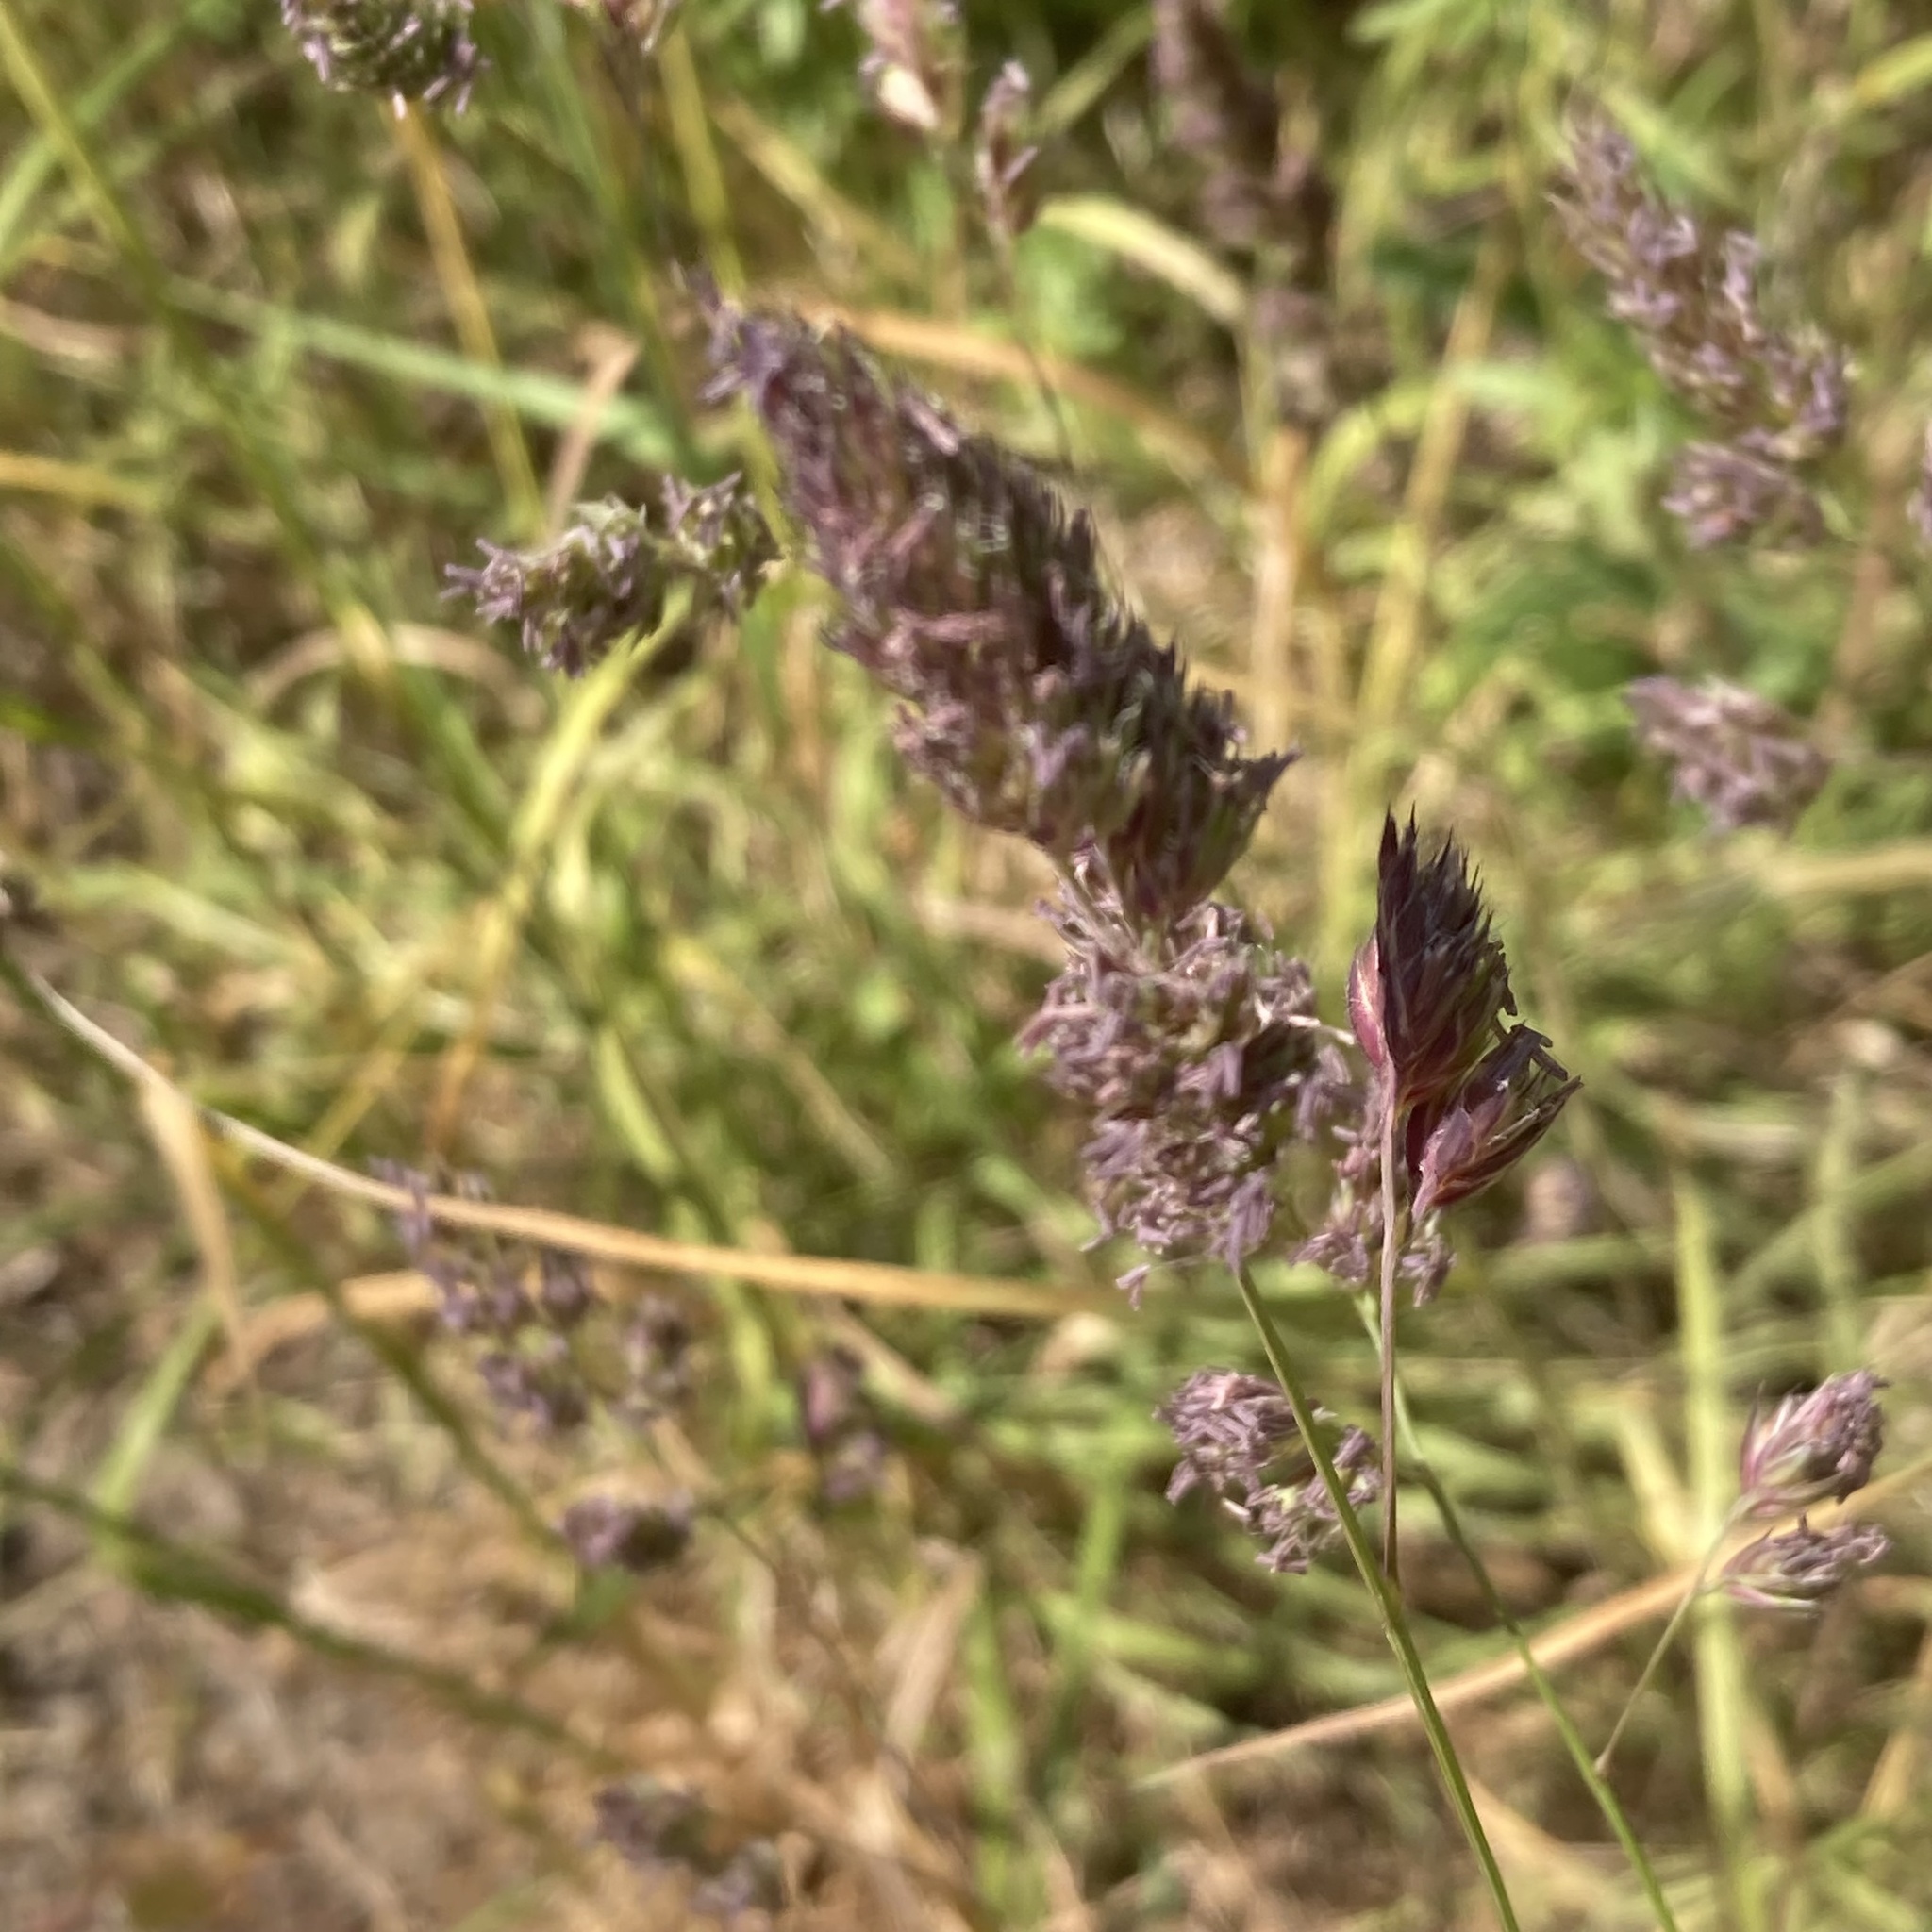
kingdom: Plantae
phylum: Tracheophyta
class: Liliopsida
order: Poales
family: Poaceae
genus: Dactylis
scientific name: Dactylis glomerata
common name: Orchardgrass
